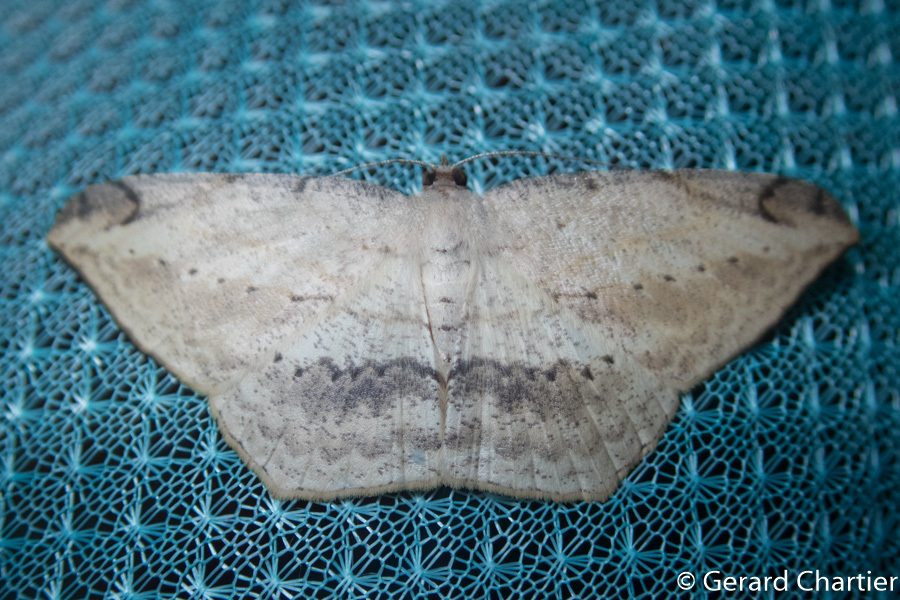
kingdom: Animalia
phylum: Arthropoda
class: Insecta
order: Lepidoptera
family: Geometridae
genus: Probithia
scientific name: Probithia exclusa
